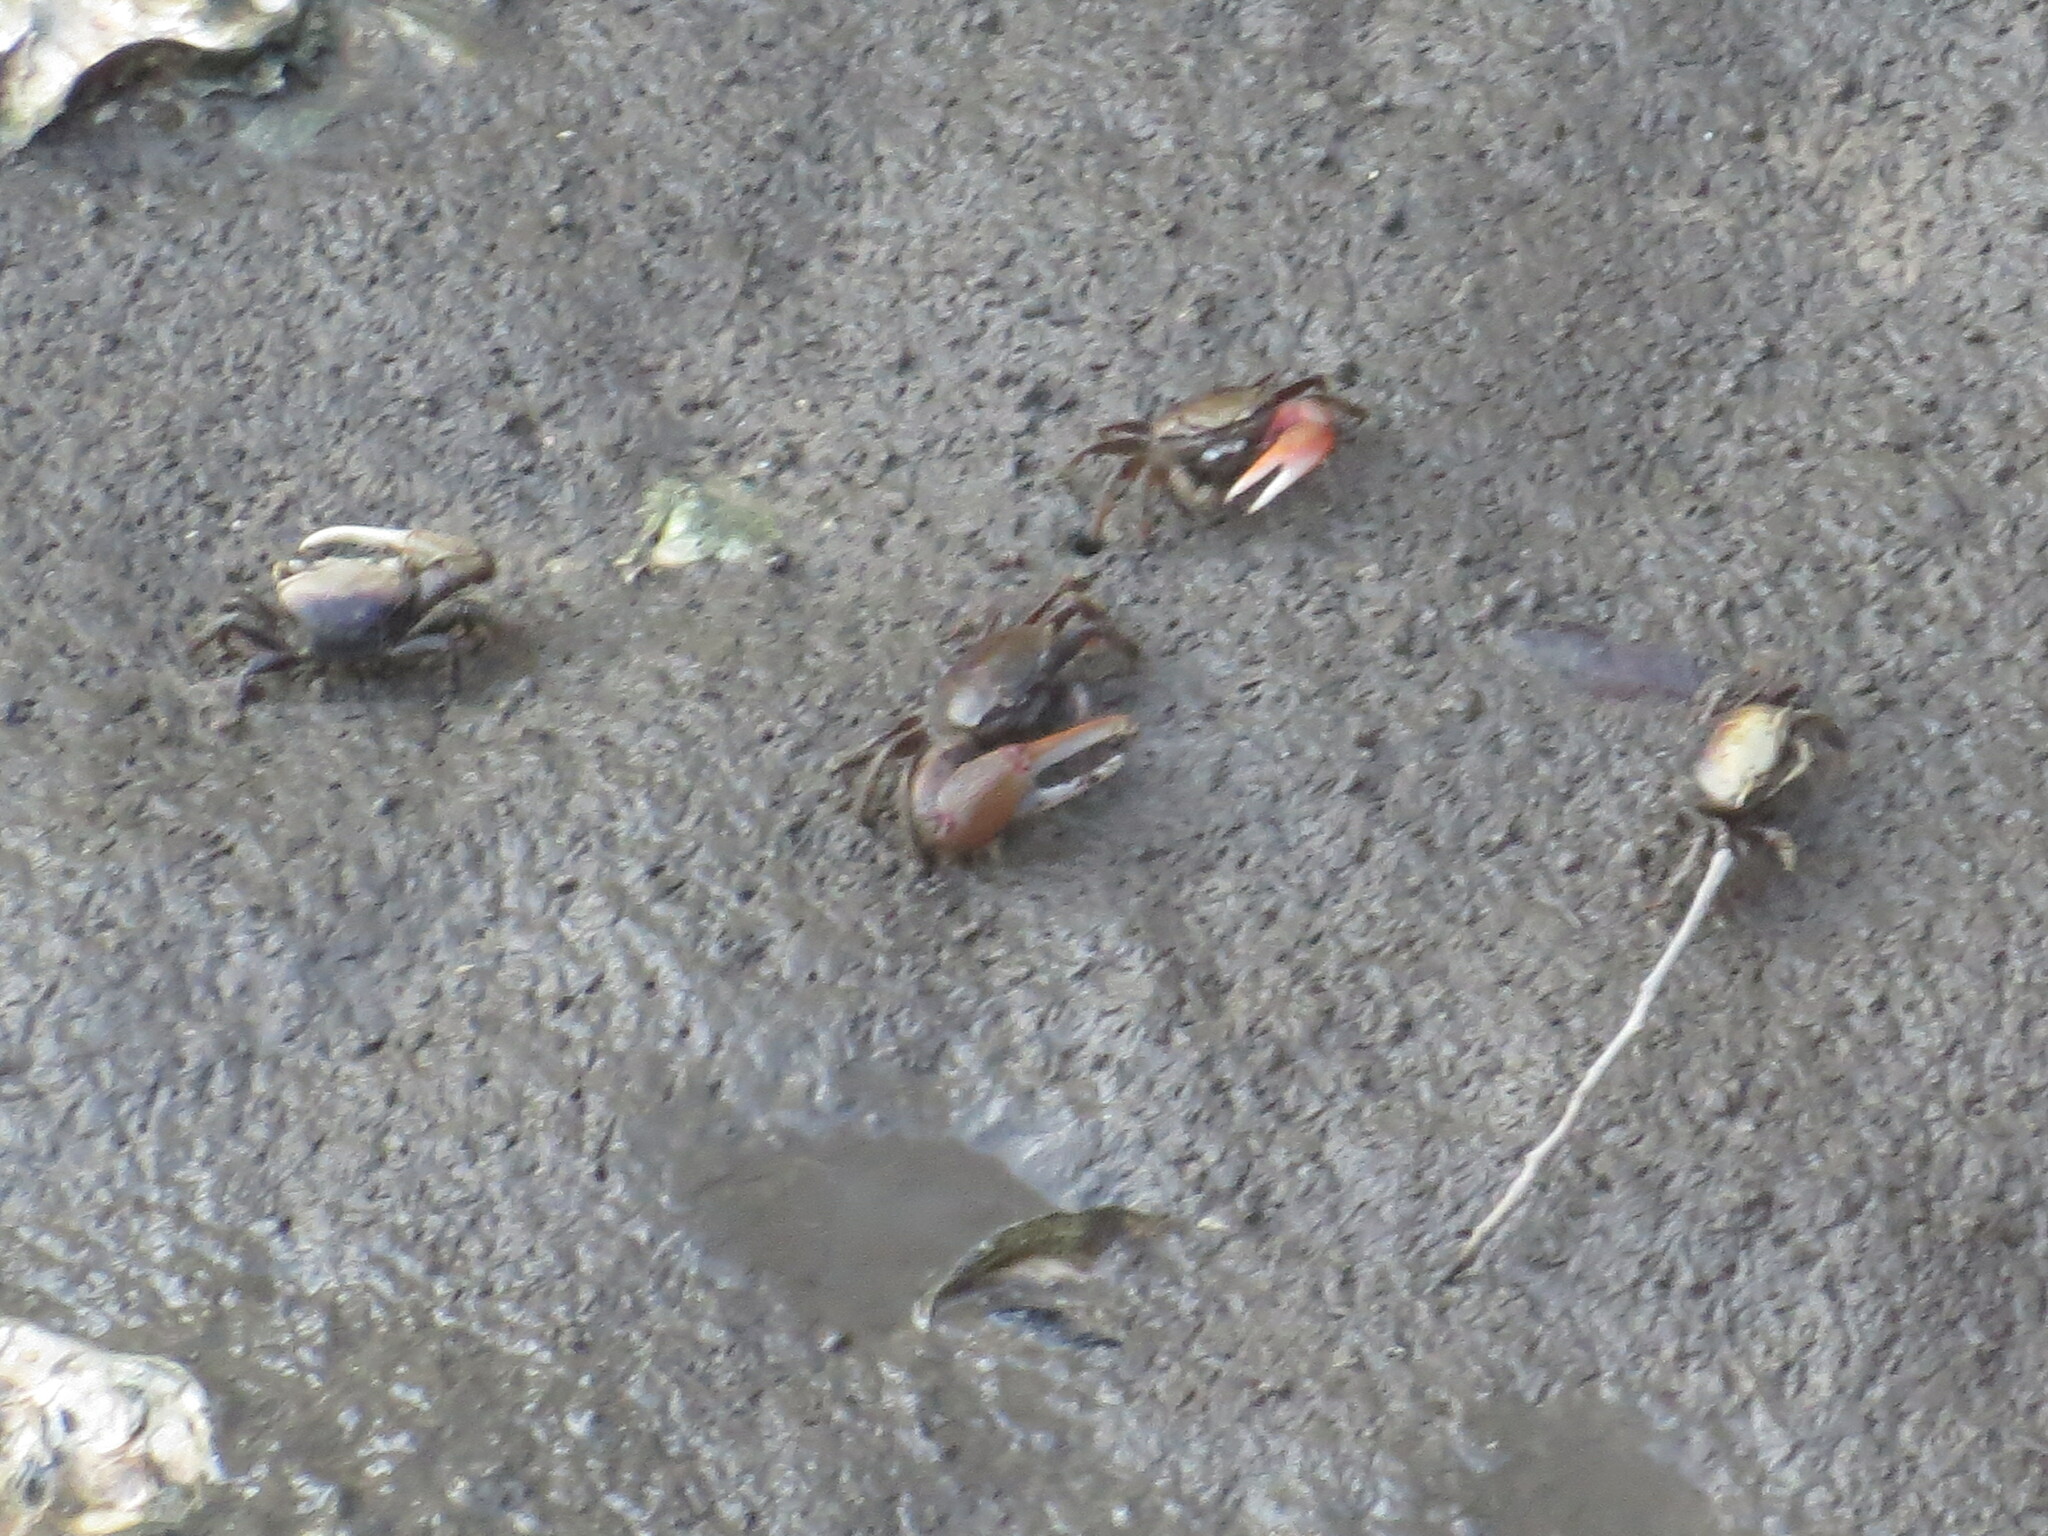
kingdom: Animalia
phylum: Arthropoda
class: Malacostraca
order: Decapoda
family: Ocypodidae
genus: Minuca
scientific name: Minuca minax
